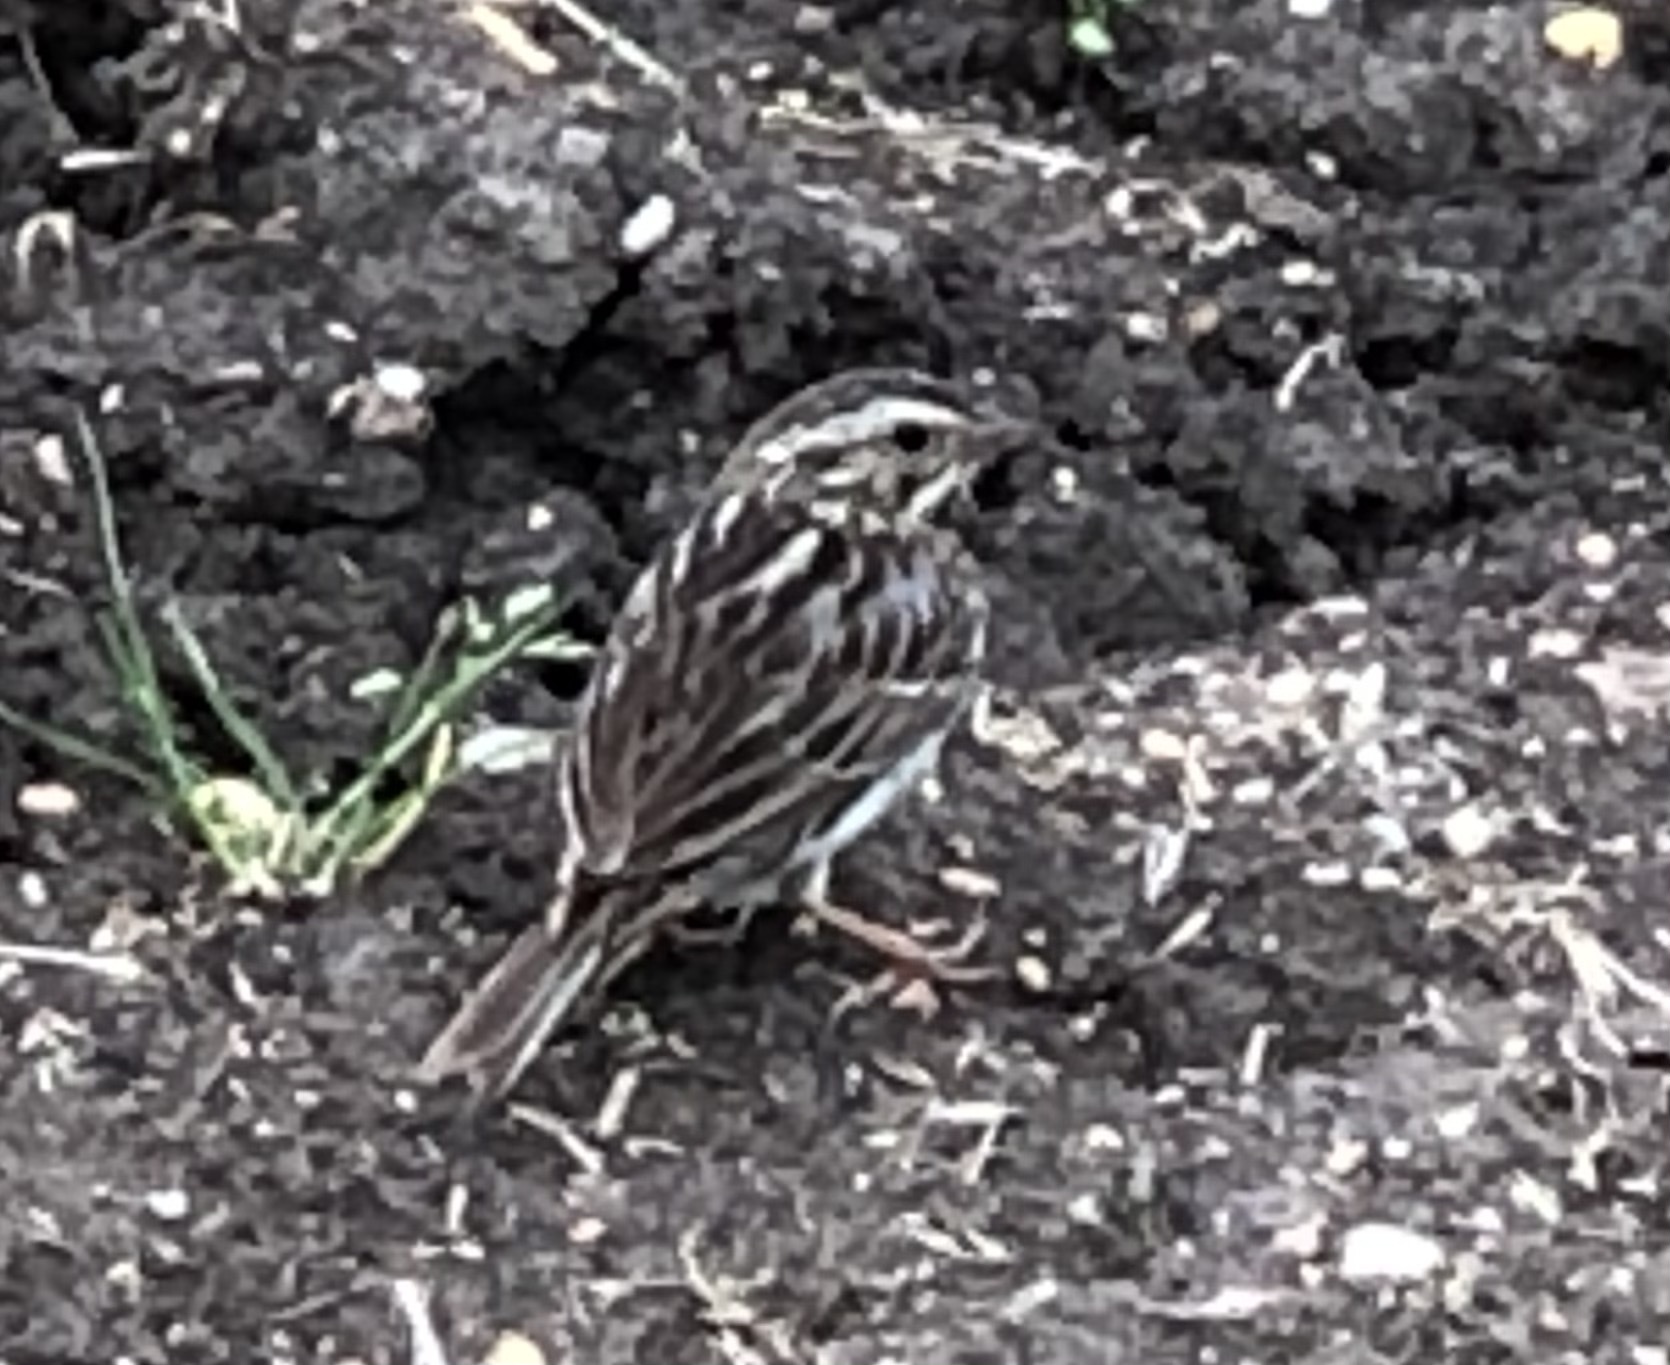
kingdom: Animalia
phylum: Chordata
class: Aves
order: Passeriformes
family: Passerellidae
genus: Passerculus
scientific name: Passerculus sandwichensis
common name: Savannah sparrow
